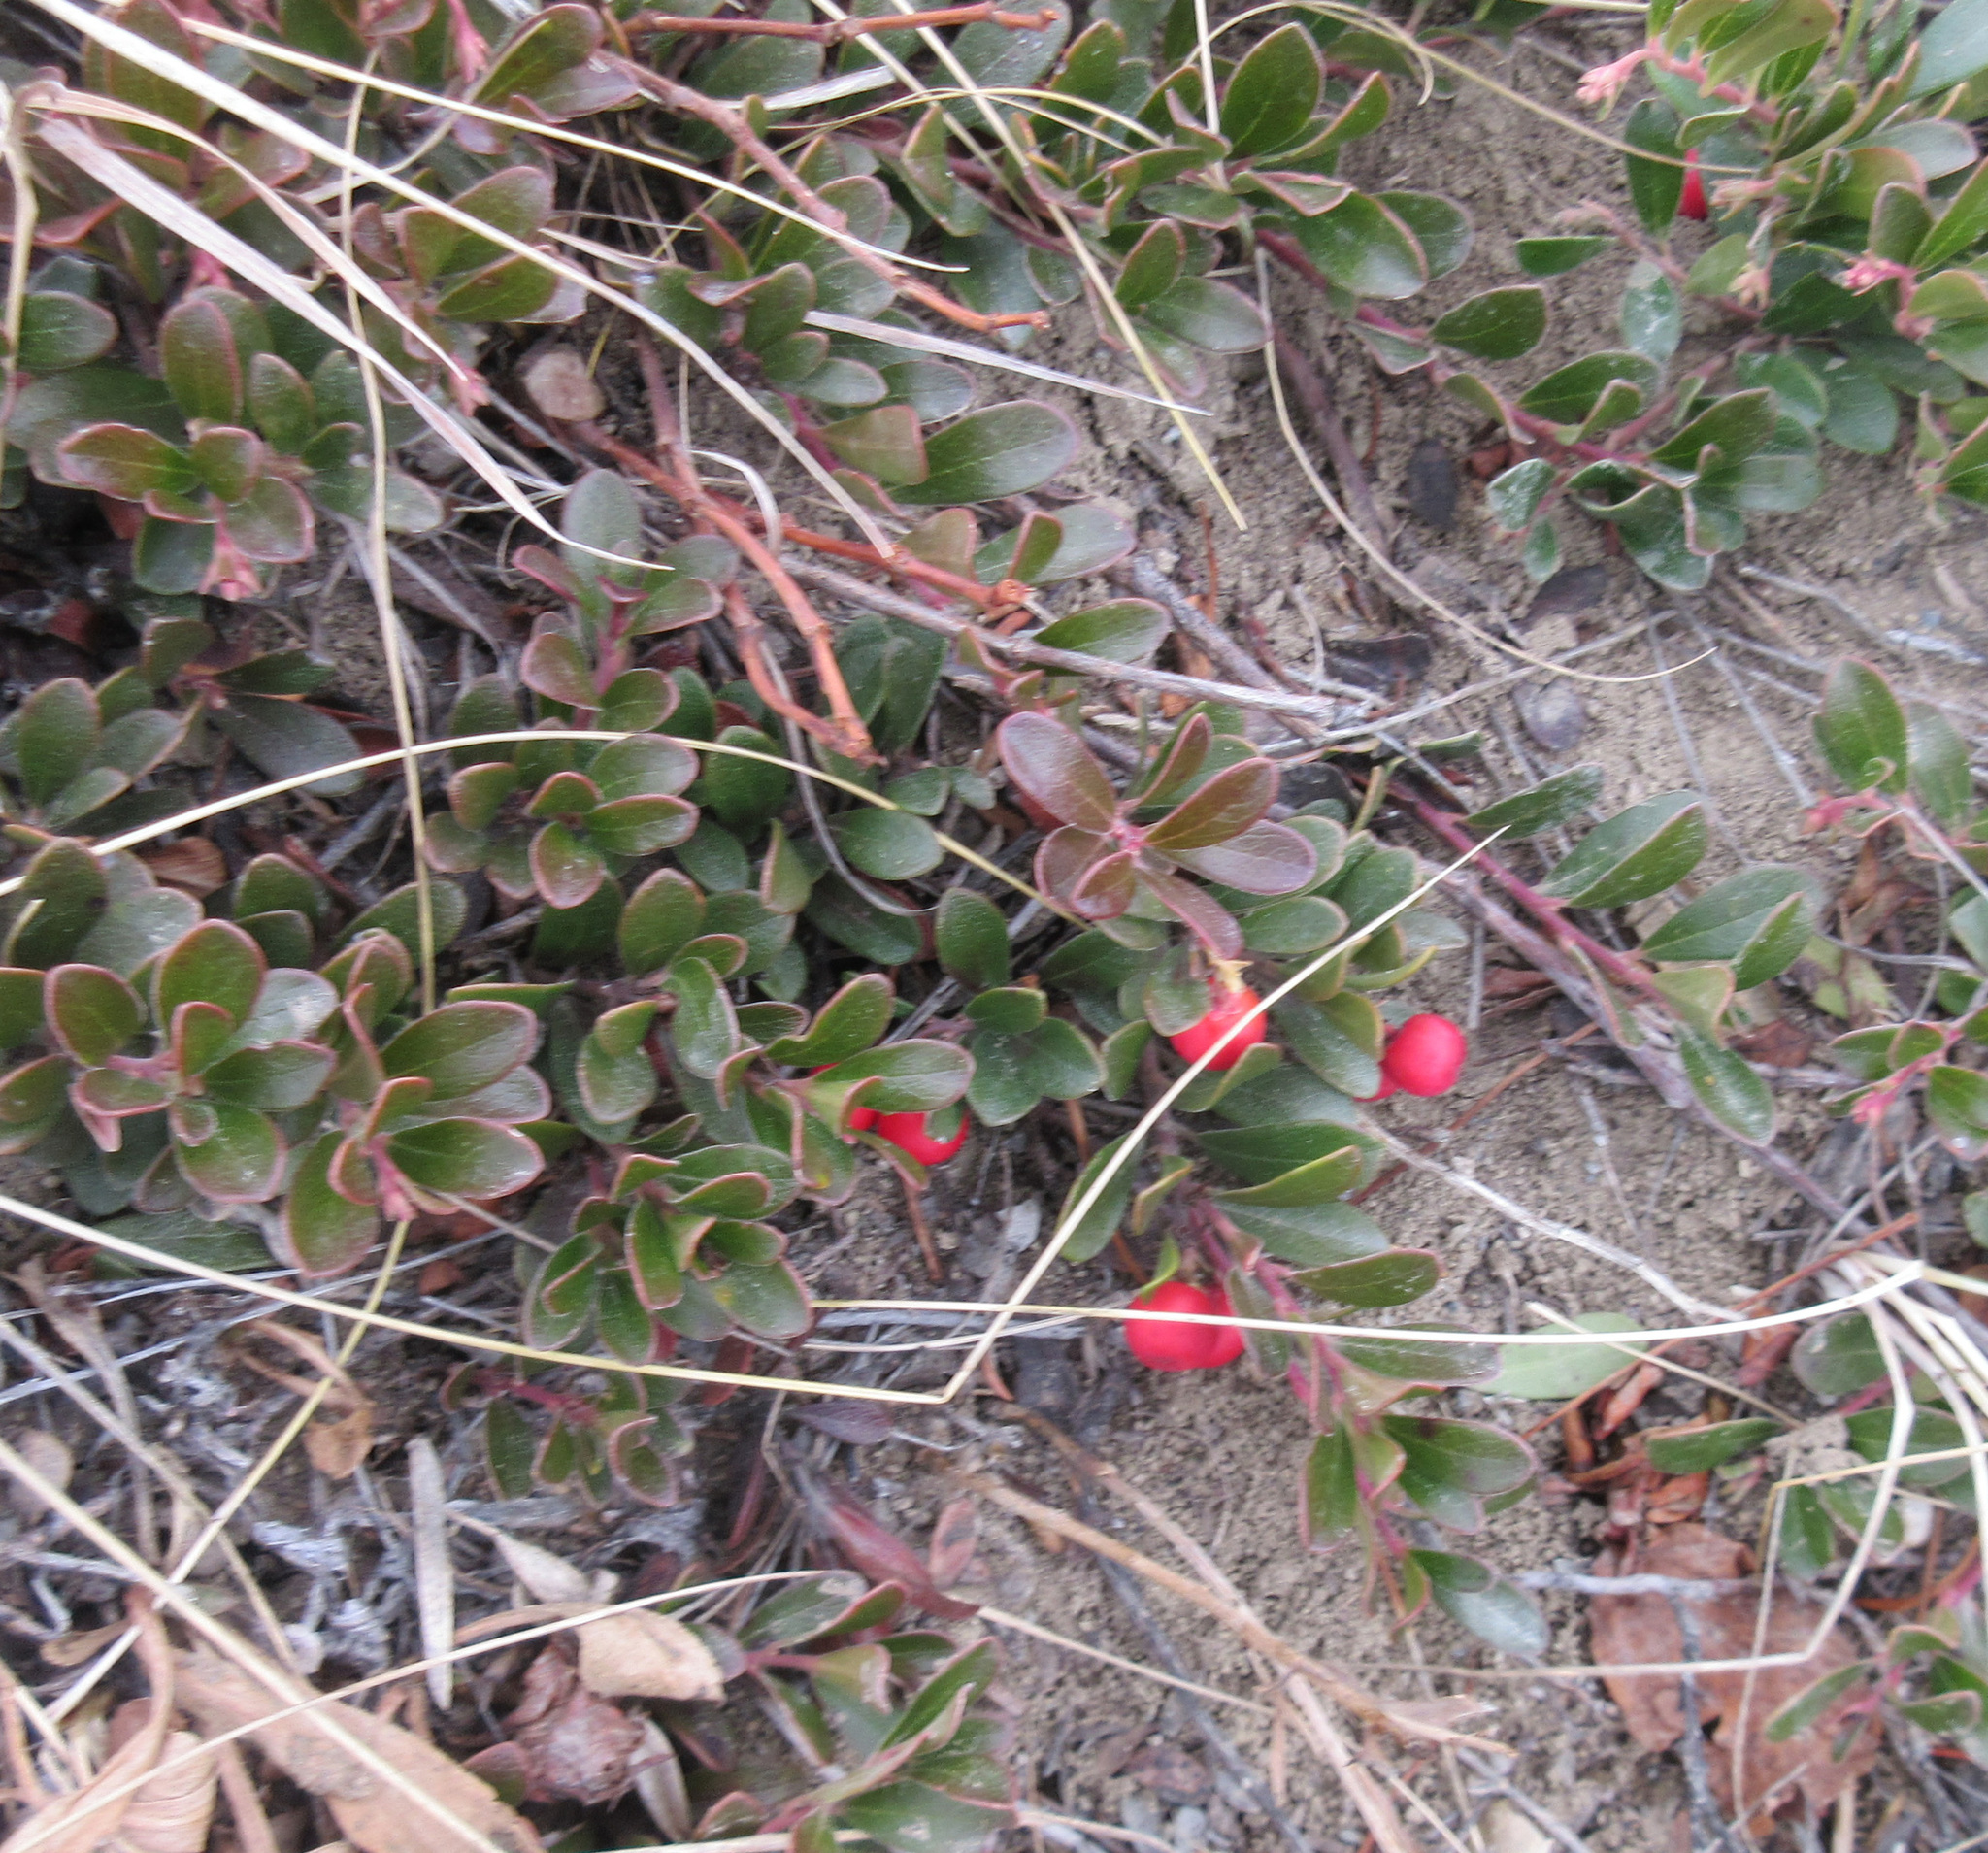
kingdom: Plantae
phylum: Tracheophyta
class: Magnoliopsida
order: Ericales
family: Ericaceae
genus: Arctostaphylos
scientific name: Arctostaphylos uva-ursi
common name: Bearberry
